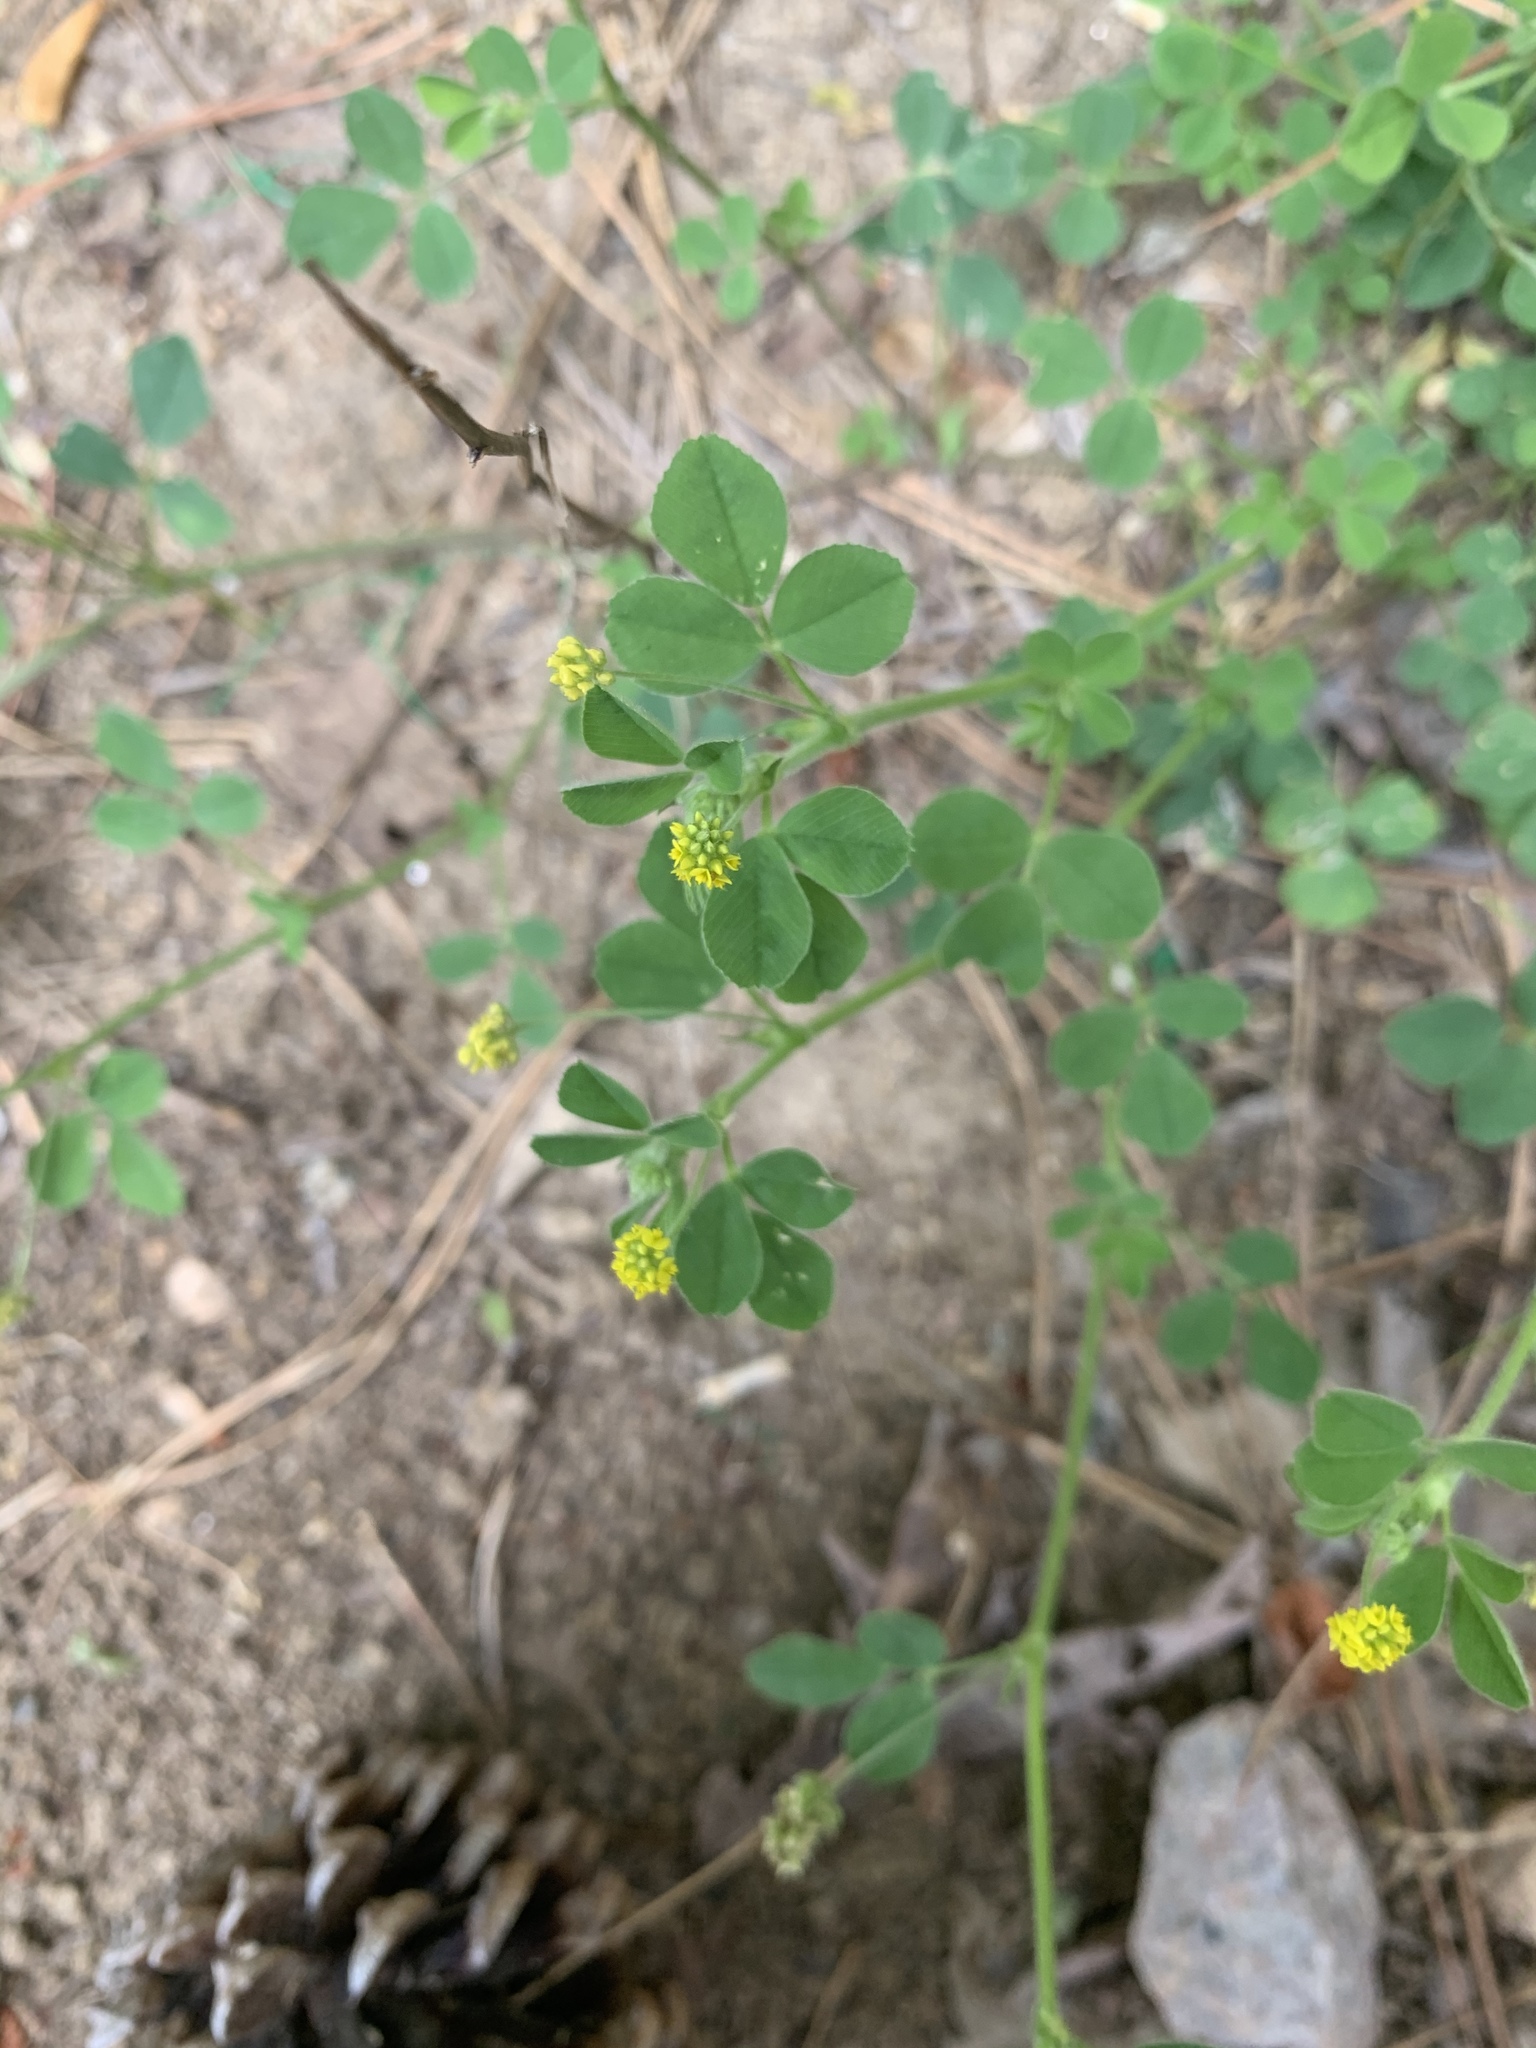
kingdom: Plantae
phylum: Tracheophyta
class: Magnoliopsida
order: Fabales
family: Fabaceae
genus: Medicago
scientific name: Medicago lupulina
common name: Black medick
